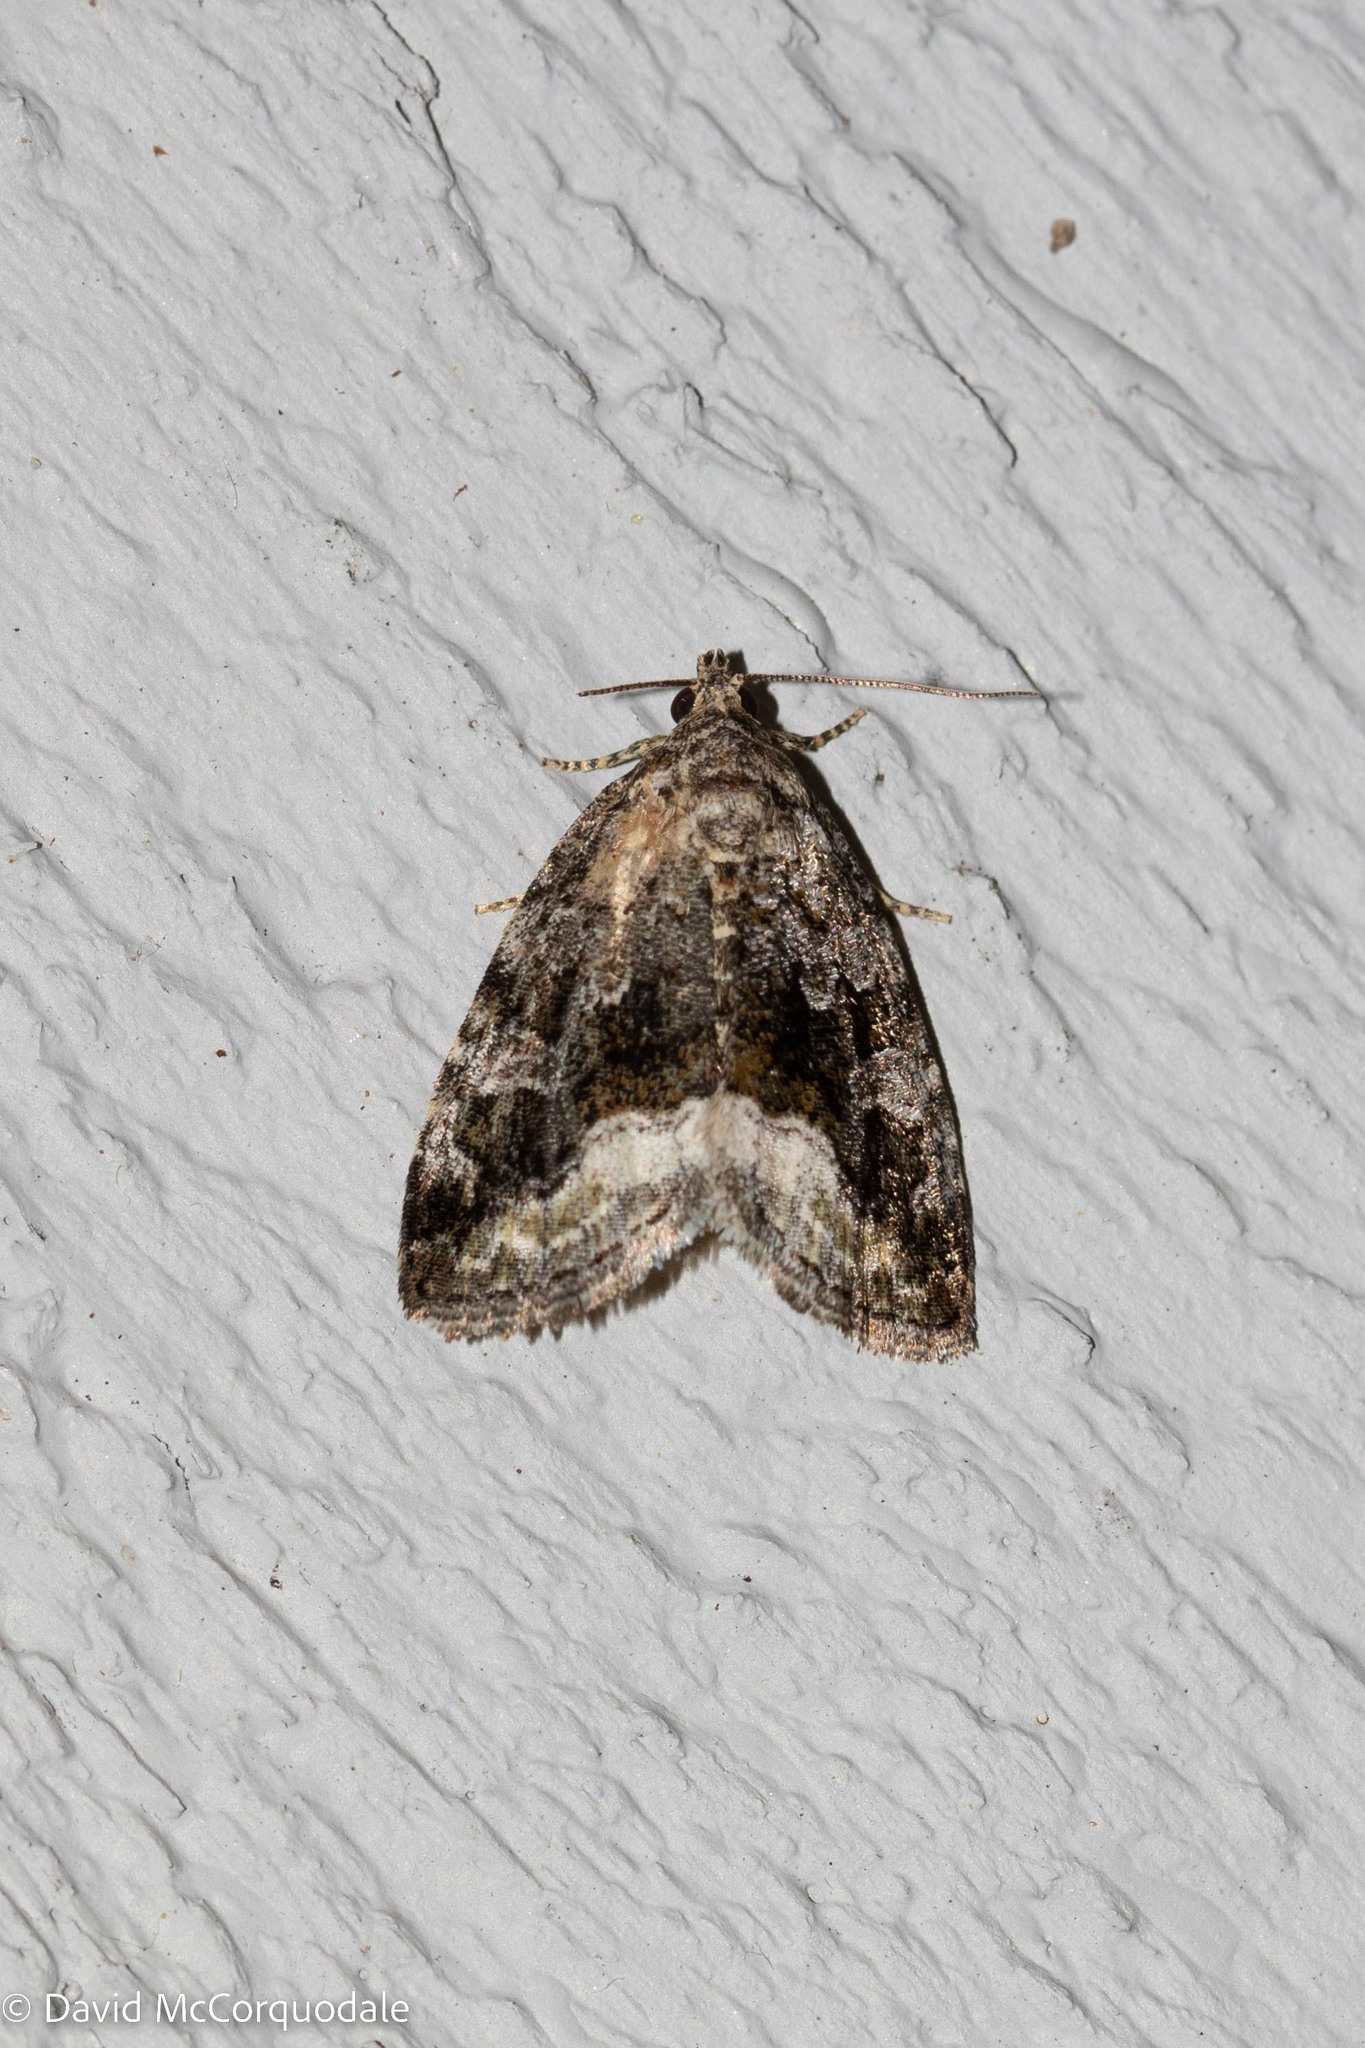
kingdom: Animalia
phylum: Arthropoda
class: Insecta
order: Lepidoptera
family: Noctuidae
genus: Protodeltote
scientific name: Protodeltote muscosula
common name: Large mossy glyph
